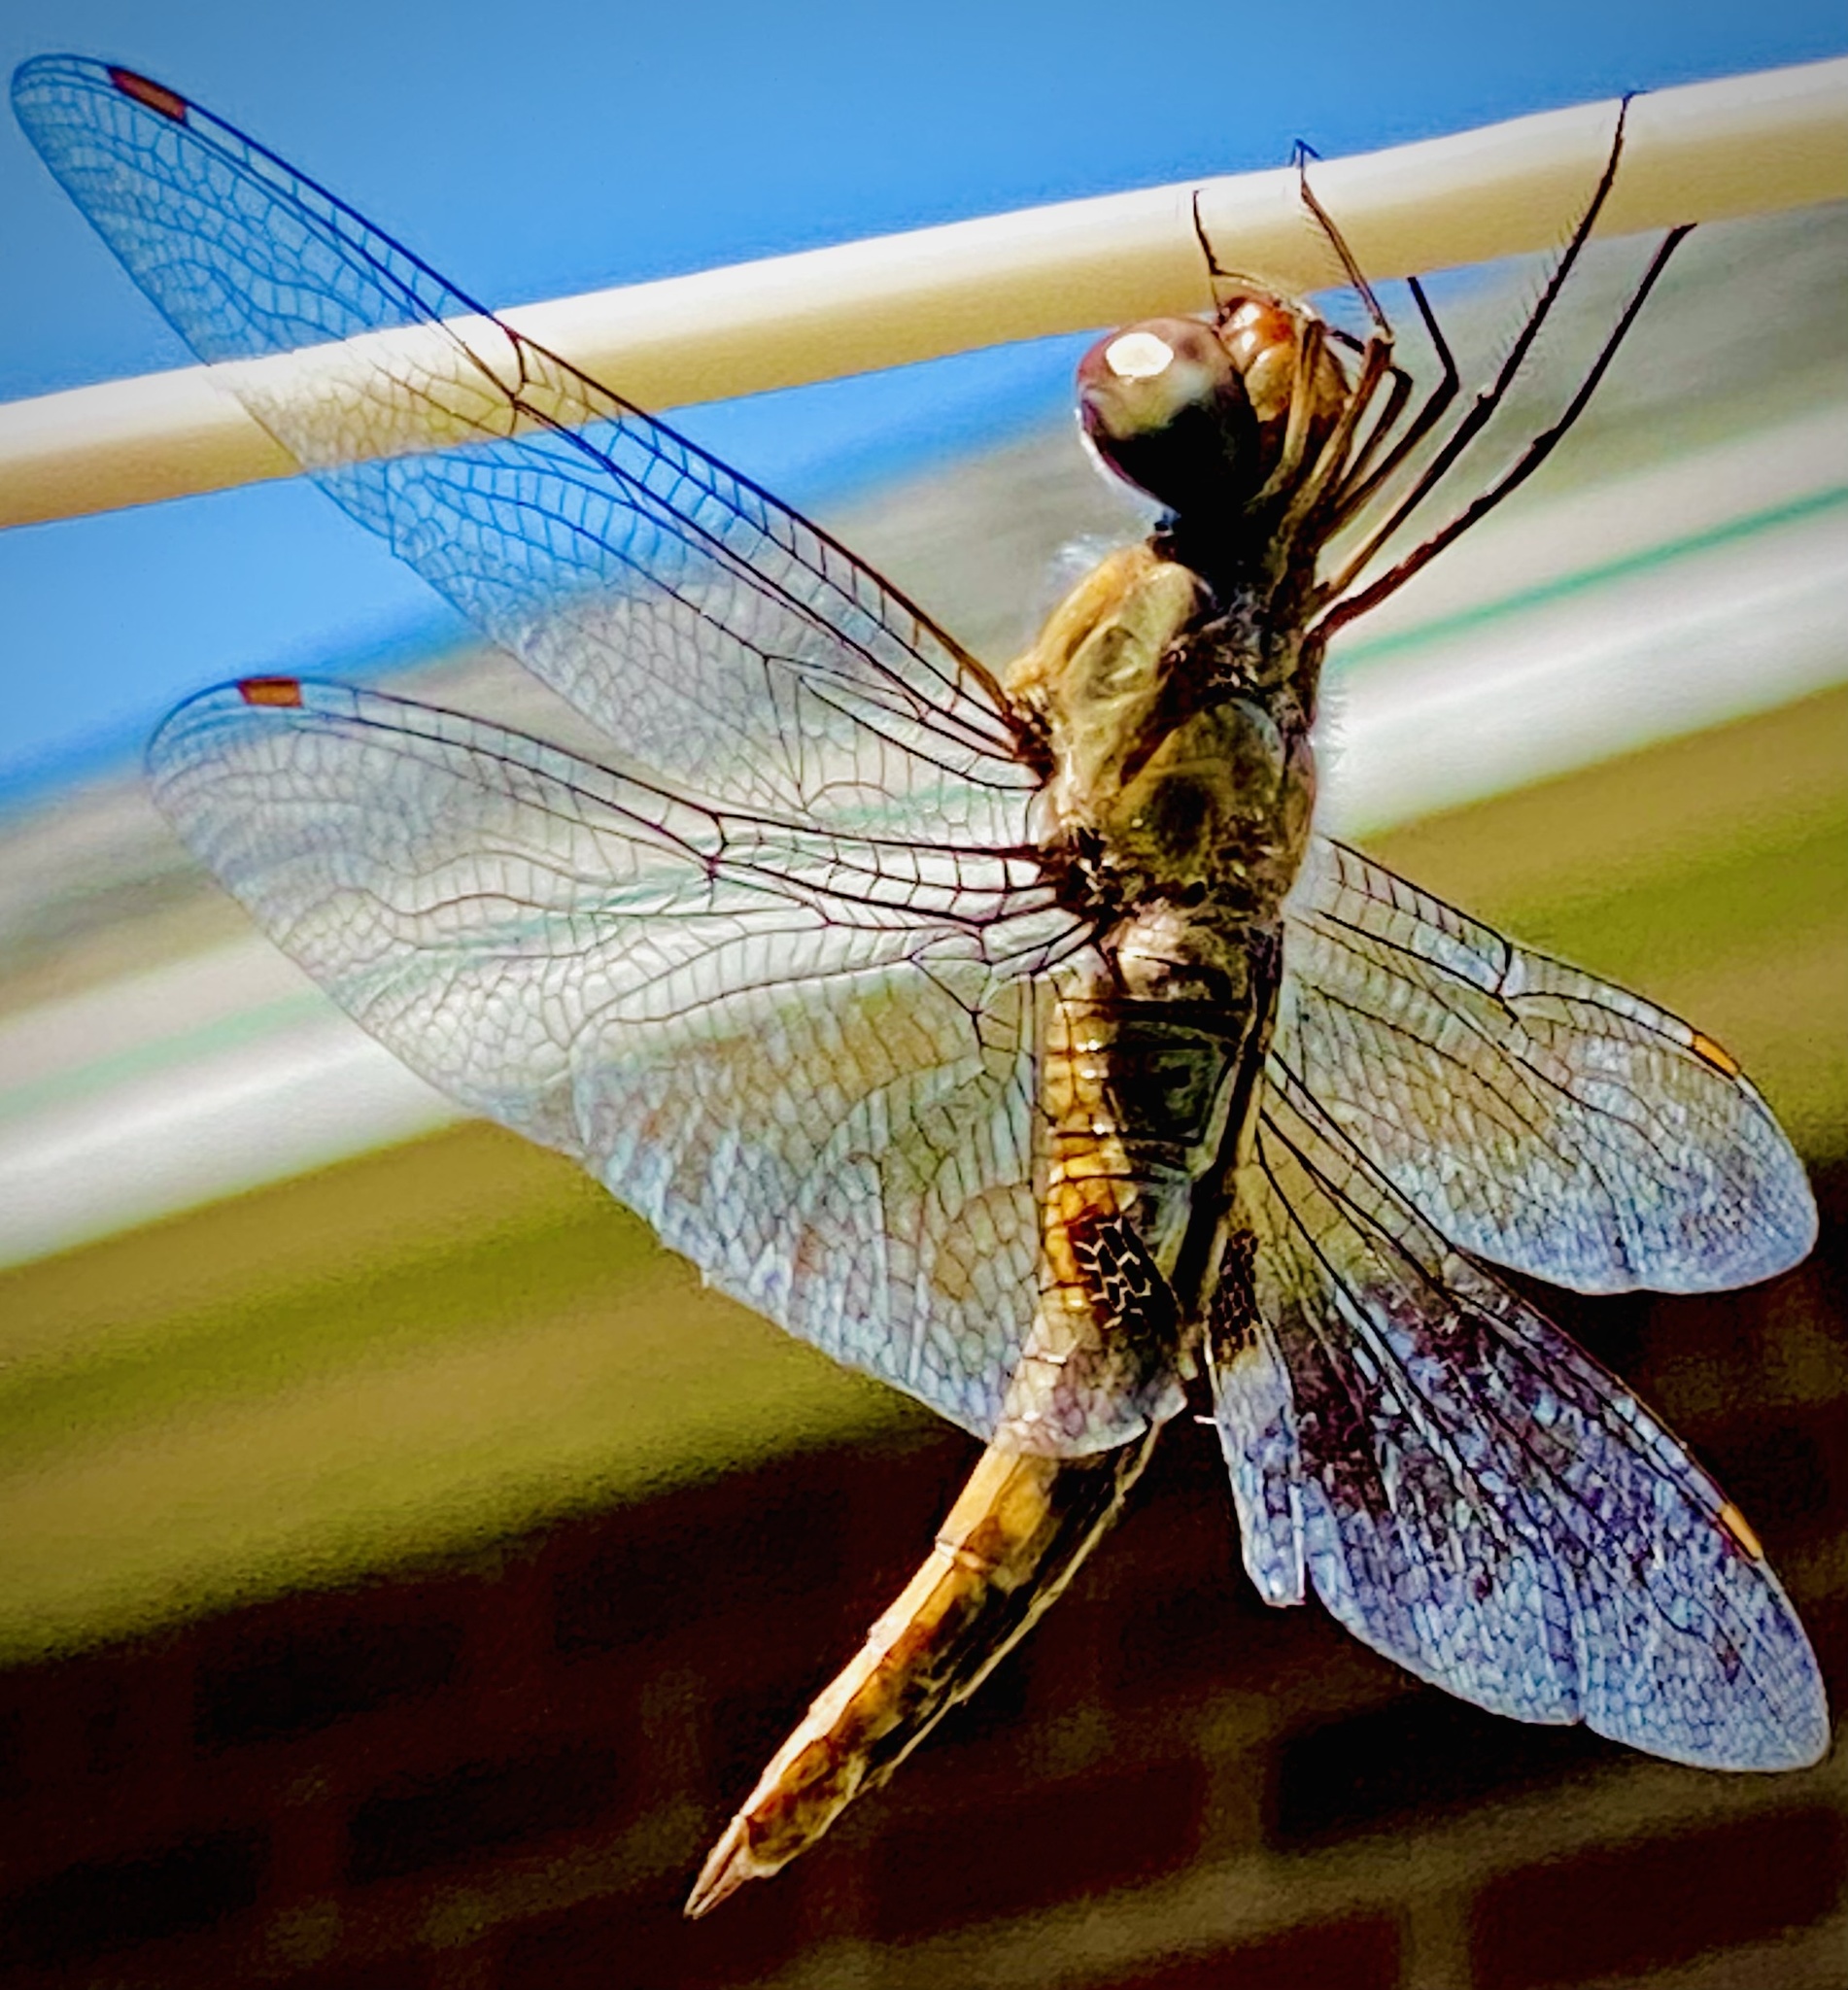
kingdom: Animalia
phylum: Arthropoda
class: Insecta
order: Odonata
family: Libellulidae
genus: Pantala
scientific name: Pantala hymenaea
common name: Spot-winged glider
